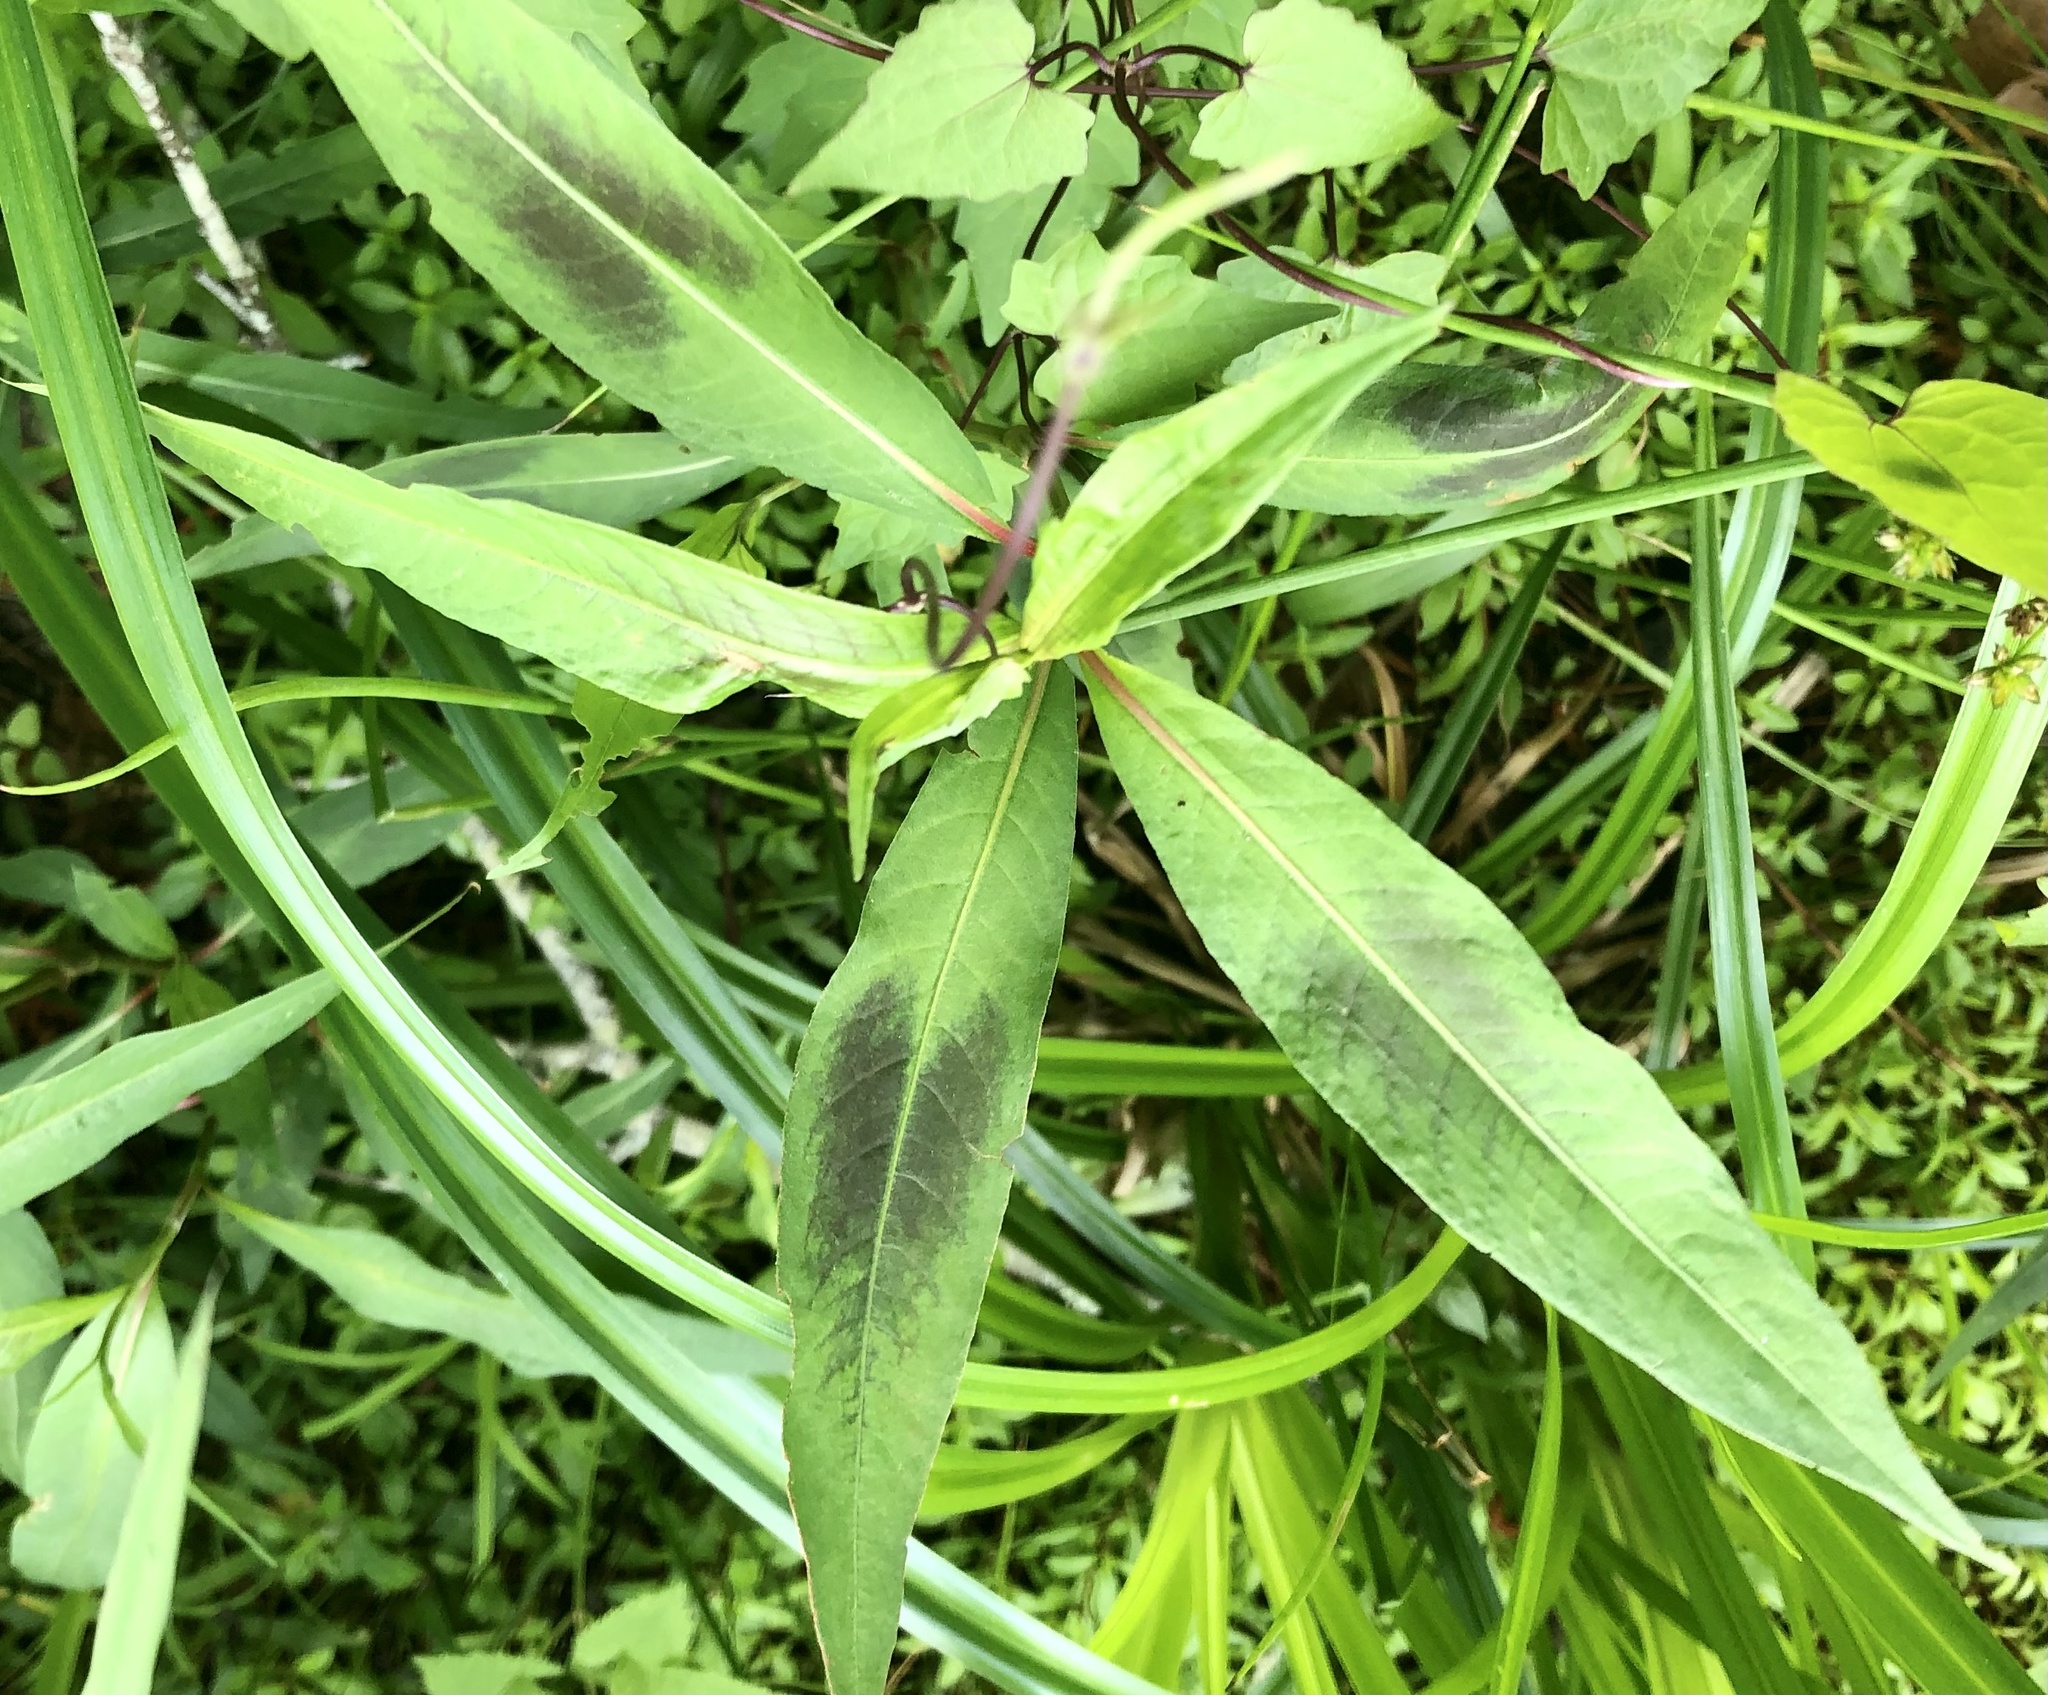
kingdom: Plantae
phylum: Tracheophyta
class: Magnoliopsida
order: Caryophyllales
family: Polygonaceae
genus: Persicaria
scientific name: Persicaria maculosa
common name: Redshank
